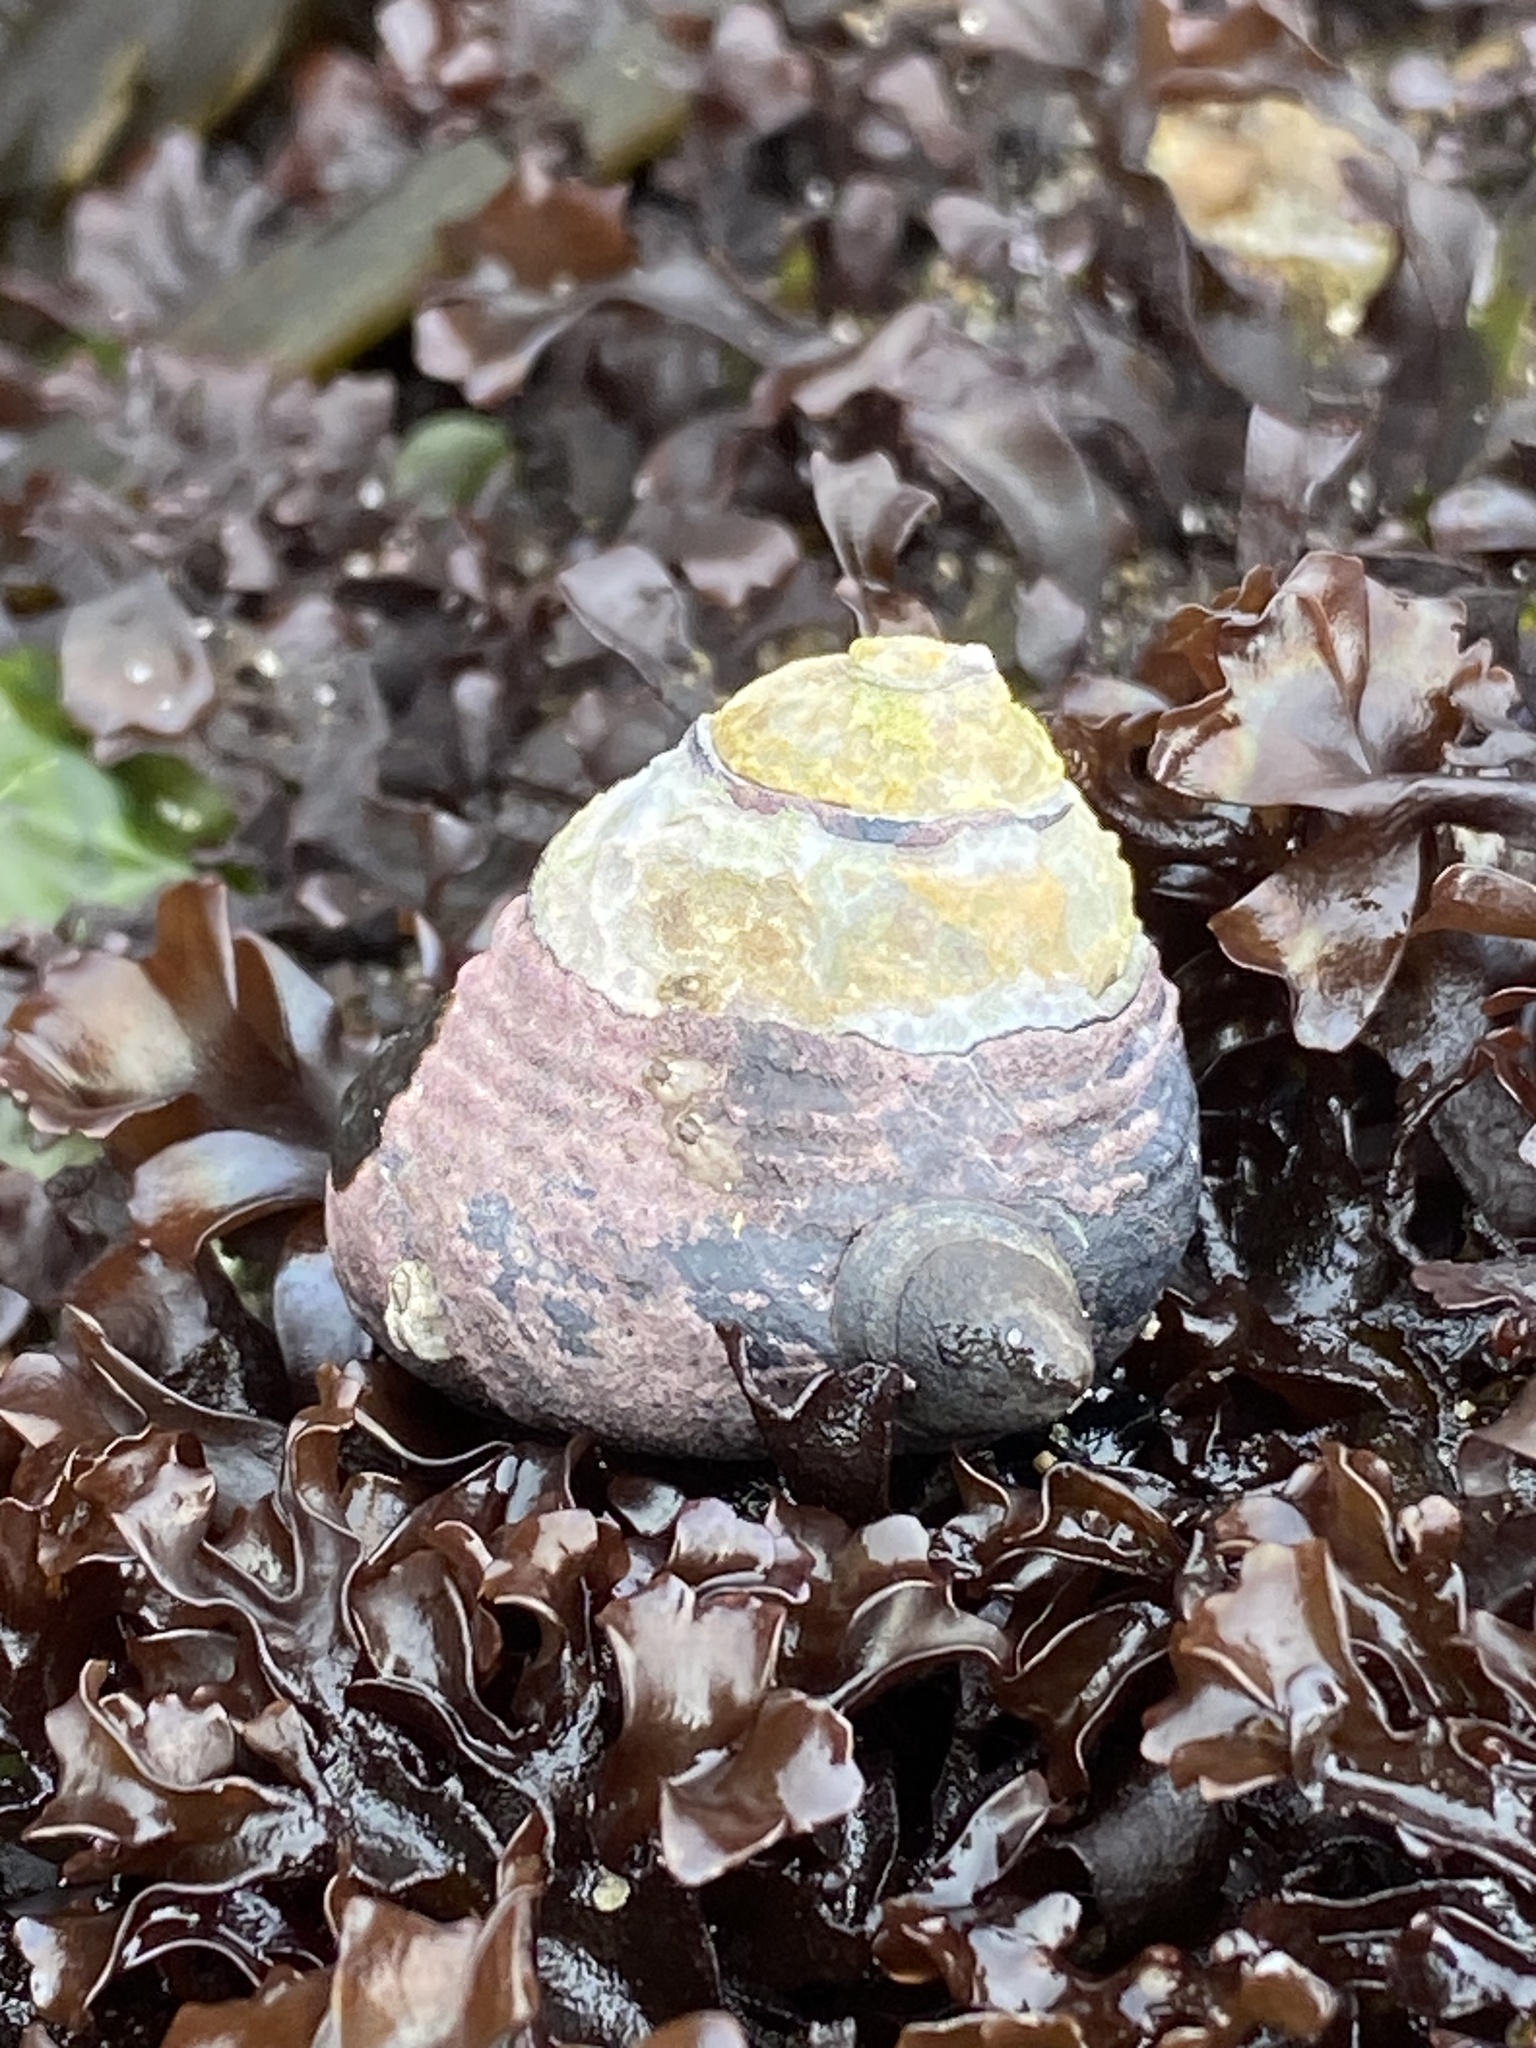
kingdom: Animalia
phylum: Mollusca
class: Gastropoda
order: Trochida
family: Tegulidae
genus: Tegula
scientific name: Tegula funebralis
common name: Black tegula
